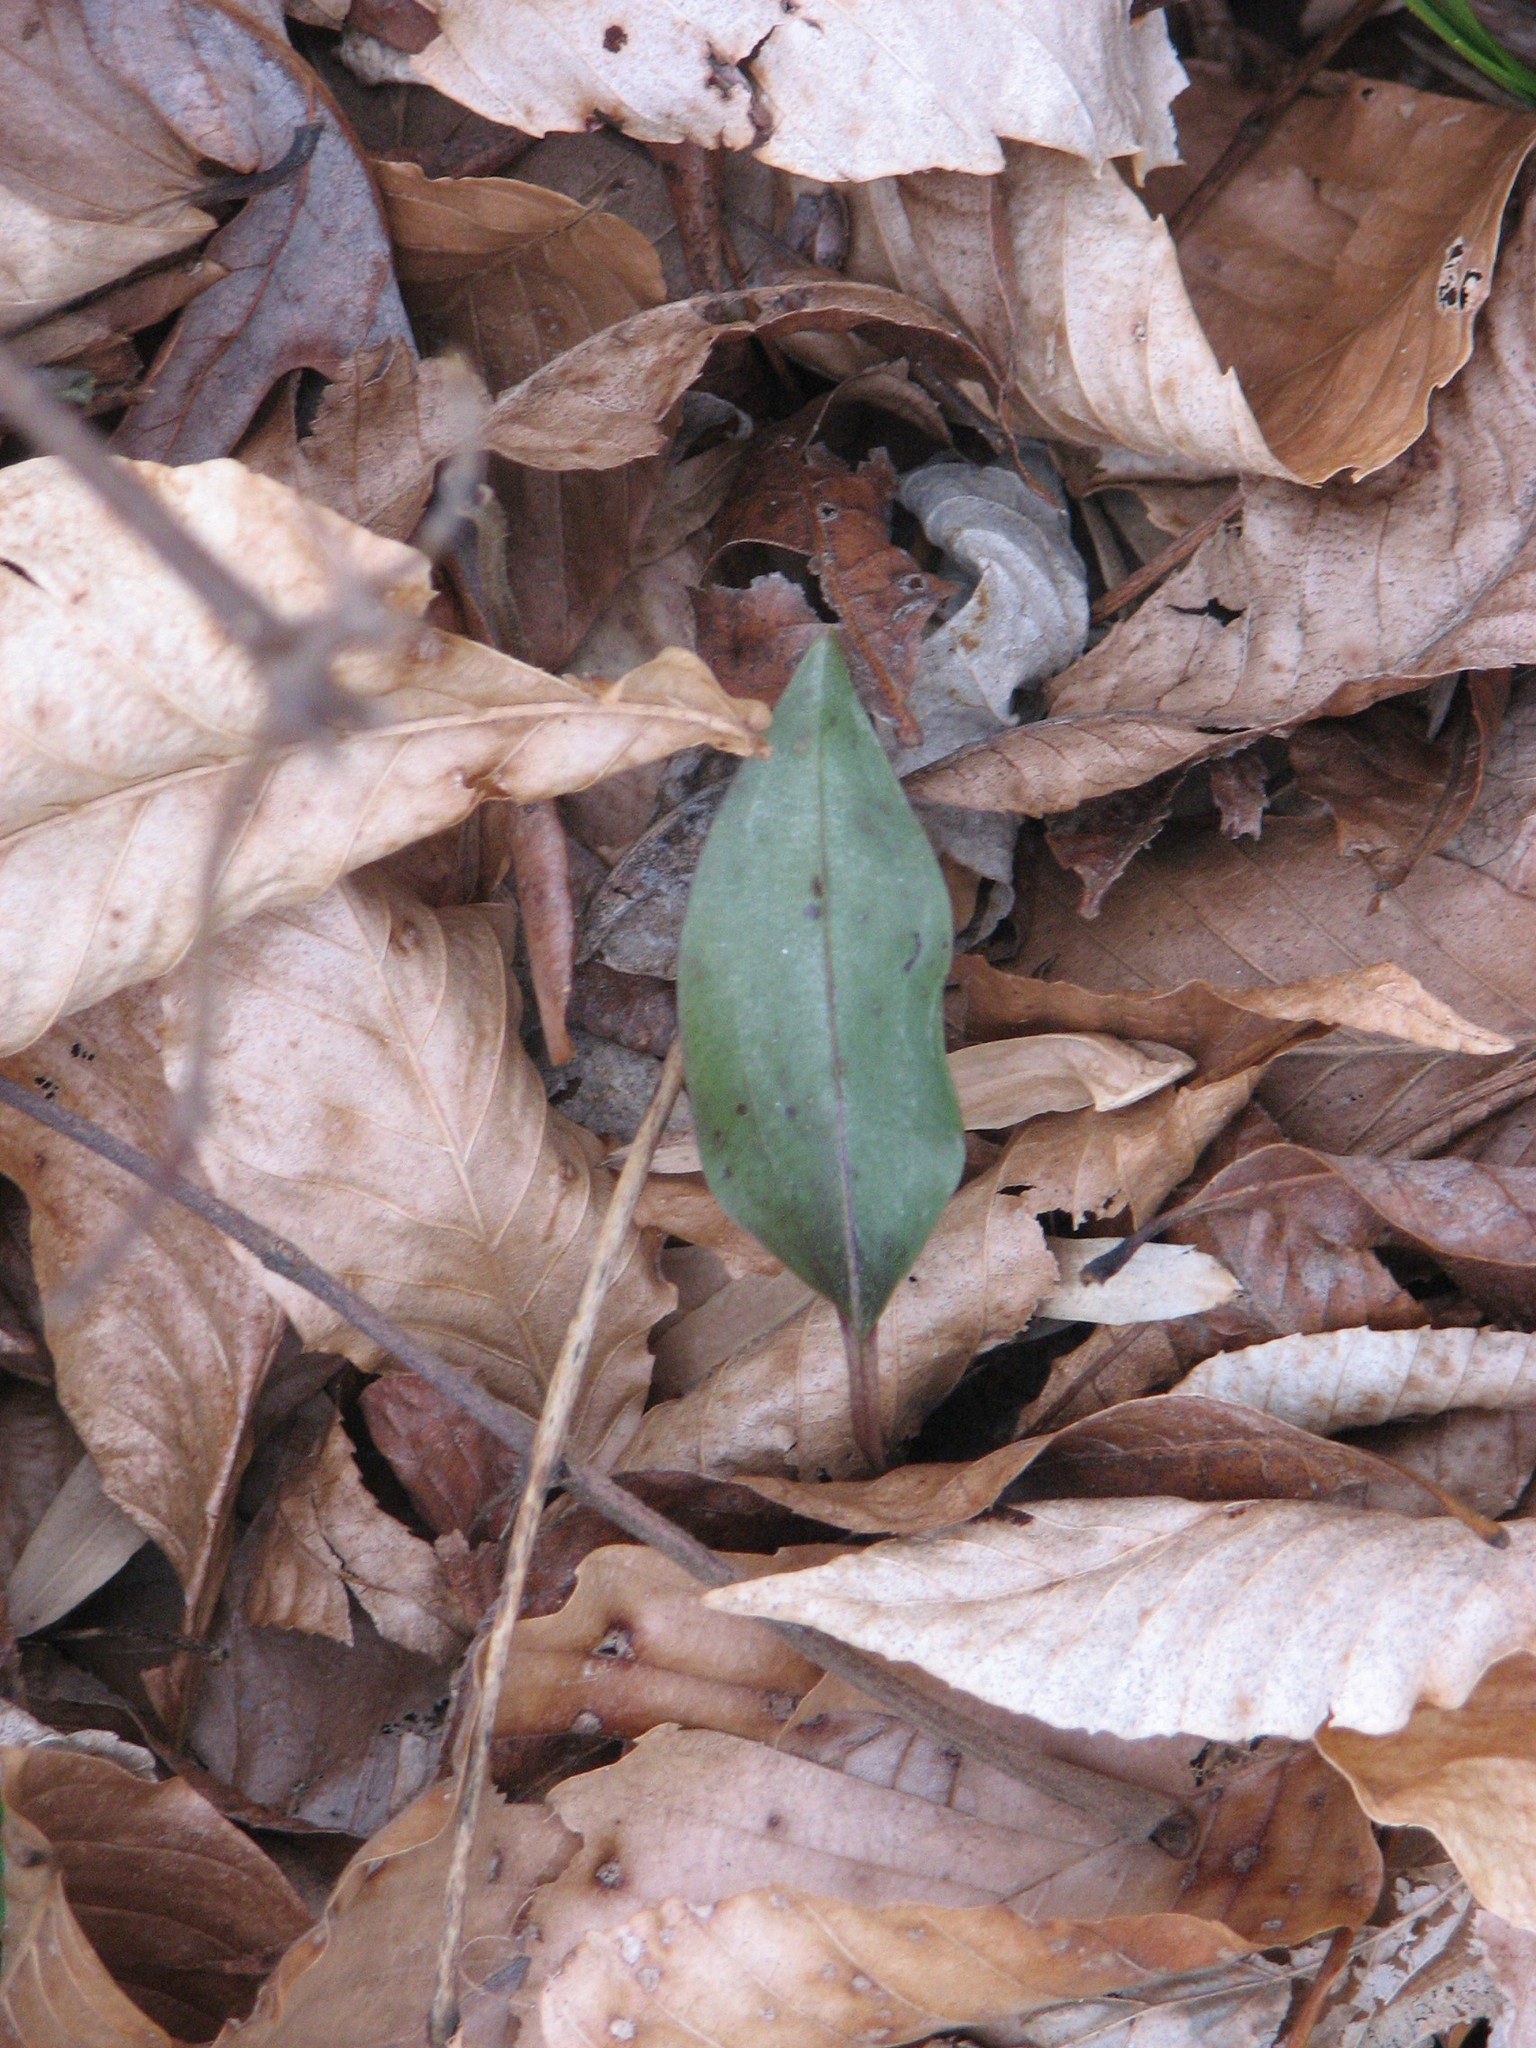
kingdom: Plantae
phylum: Tracheophyta
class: Liliopsida
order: Asparagales
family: Orchidaceae
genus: Tipularia
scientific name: Tipularia discolor
